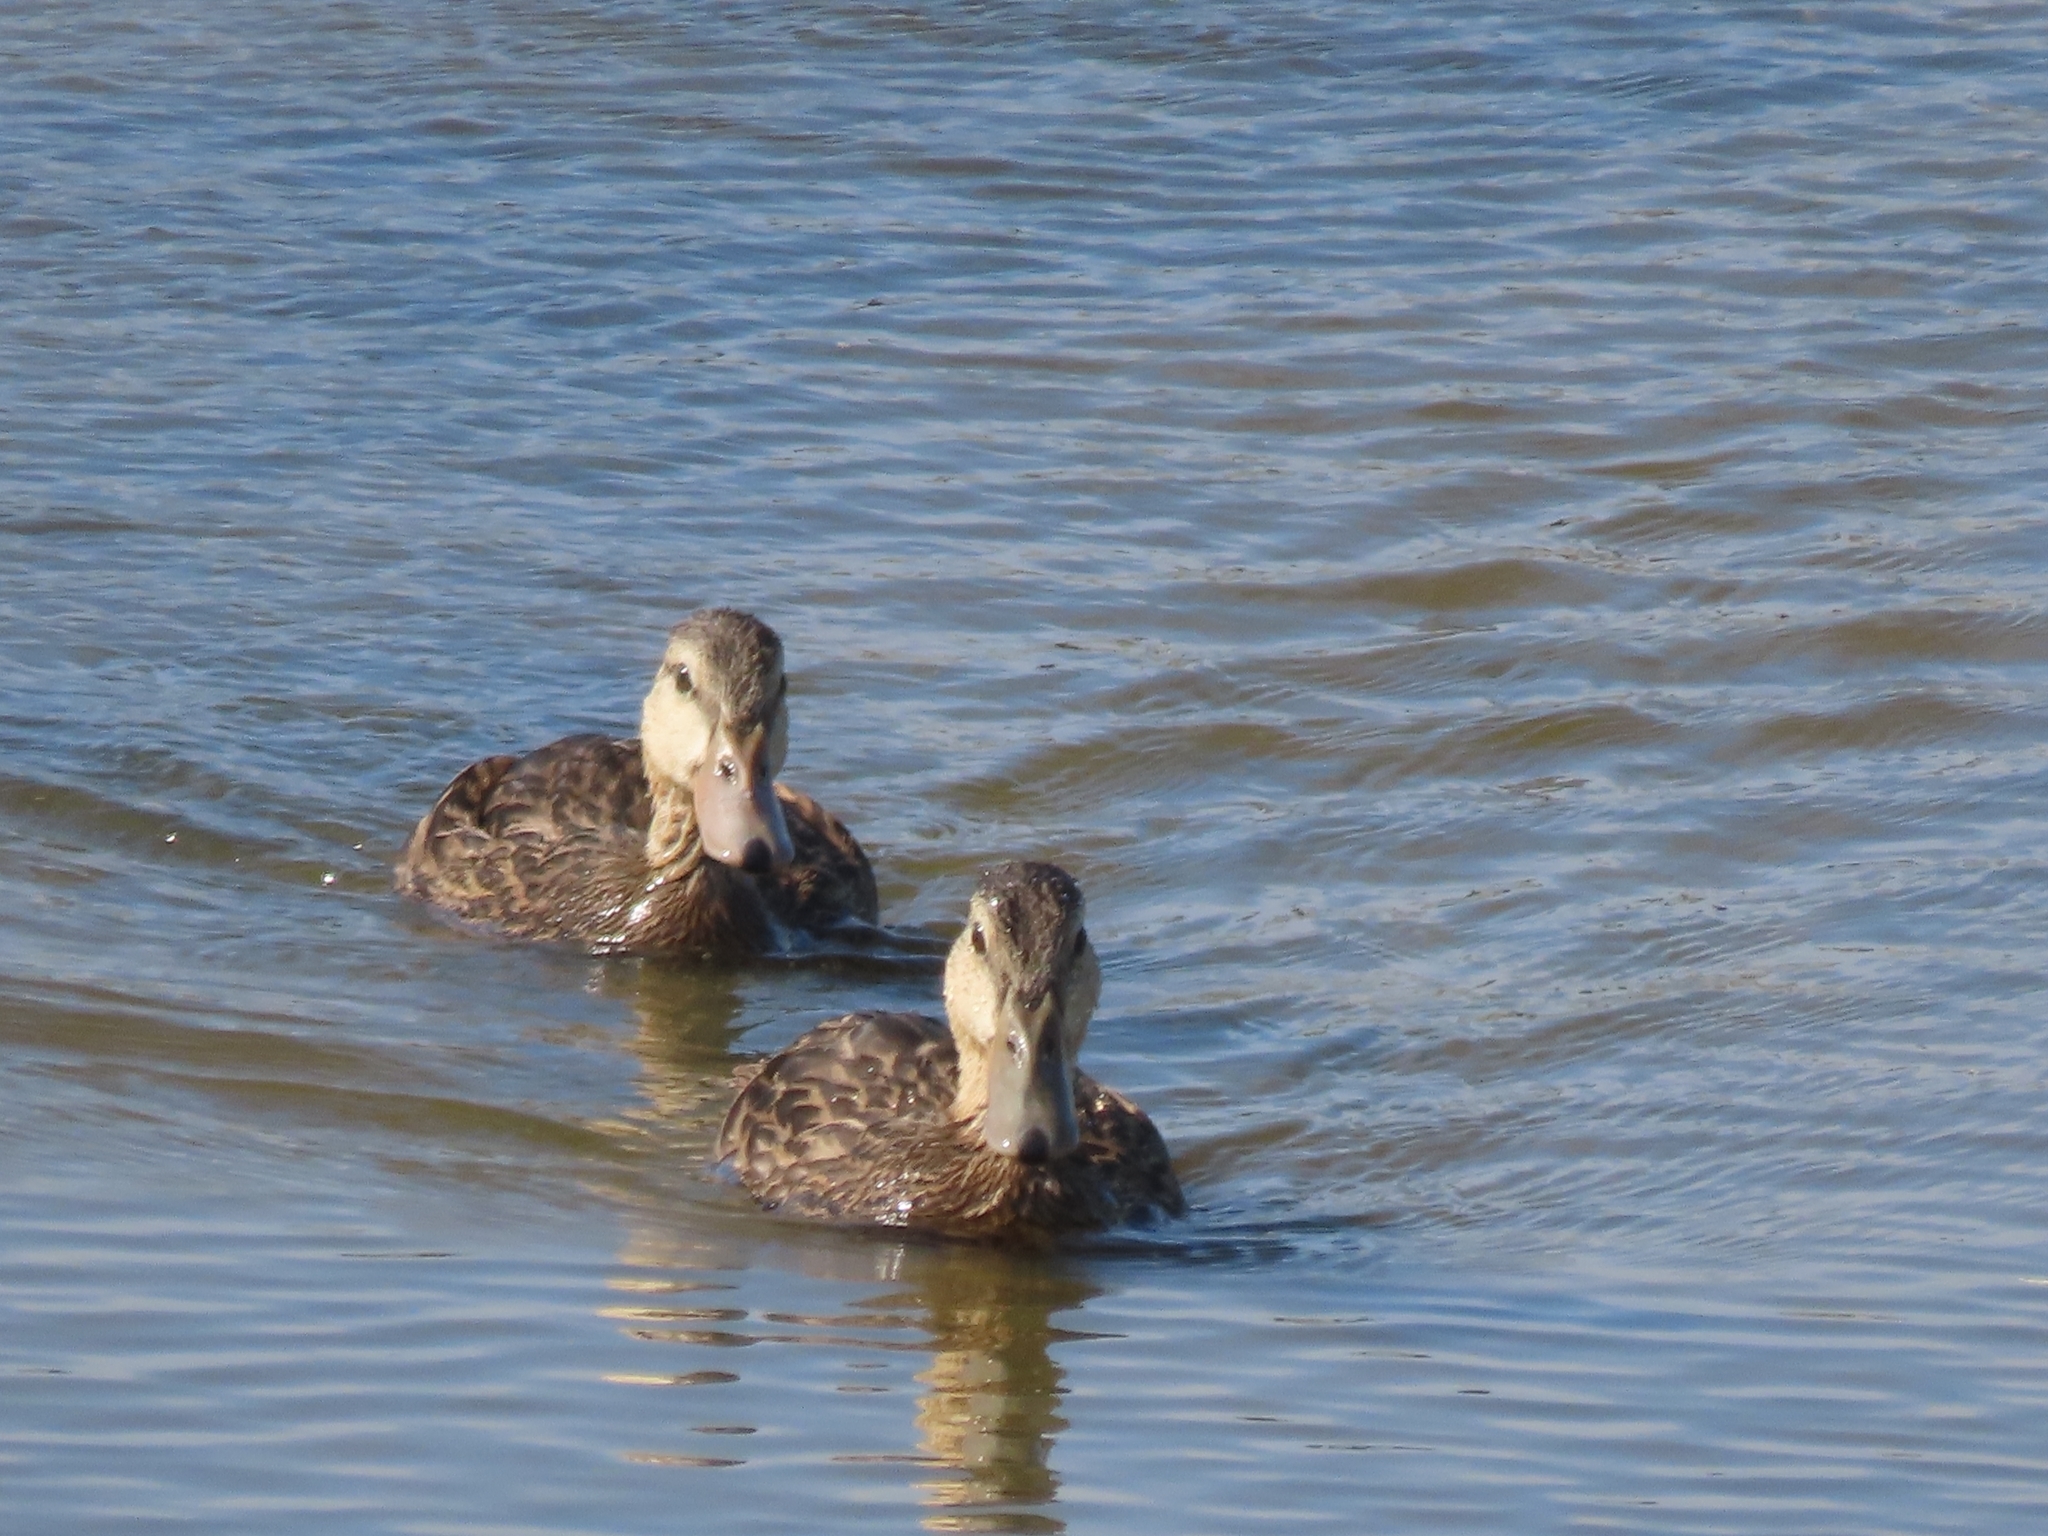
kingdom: Animalia
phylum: Chordata
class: Aves
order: Anseriformes
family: Anatidae
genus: Anas
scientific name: Anas fulvigula
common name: Mottled duck
